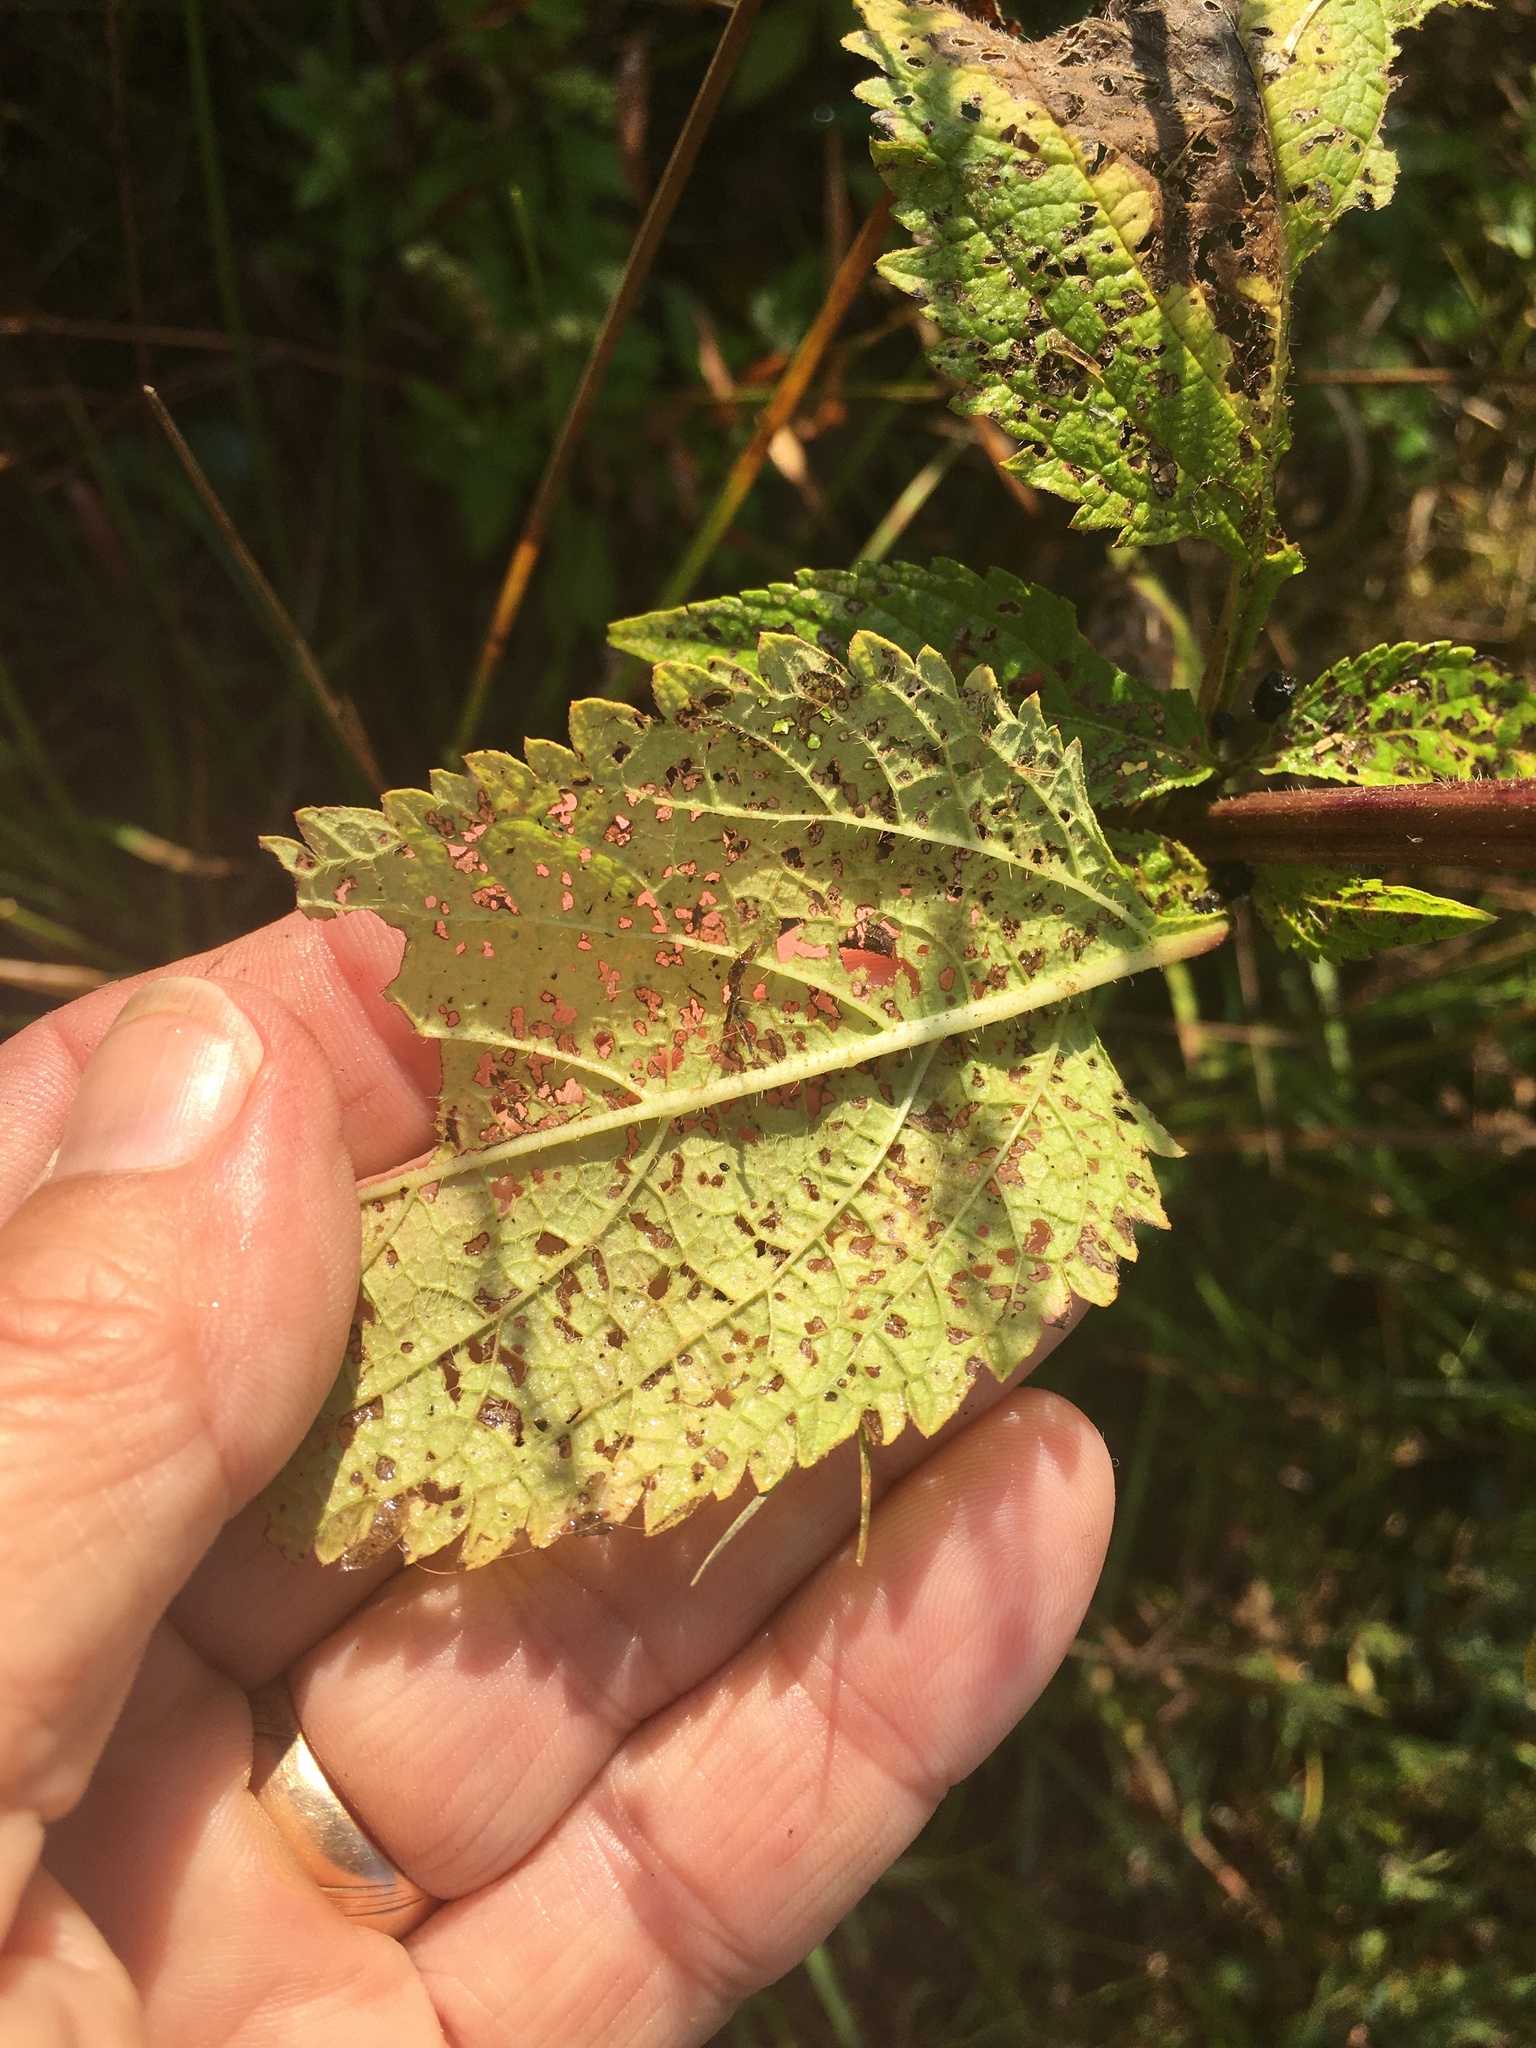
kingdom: Plantae
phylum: Tracheophyta
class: Magnoliopsida
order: Lamiales
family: Verbenaceae
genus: Verbena
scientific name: Verbena urticifolia
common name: Nettle-leaved vervain
